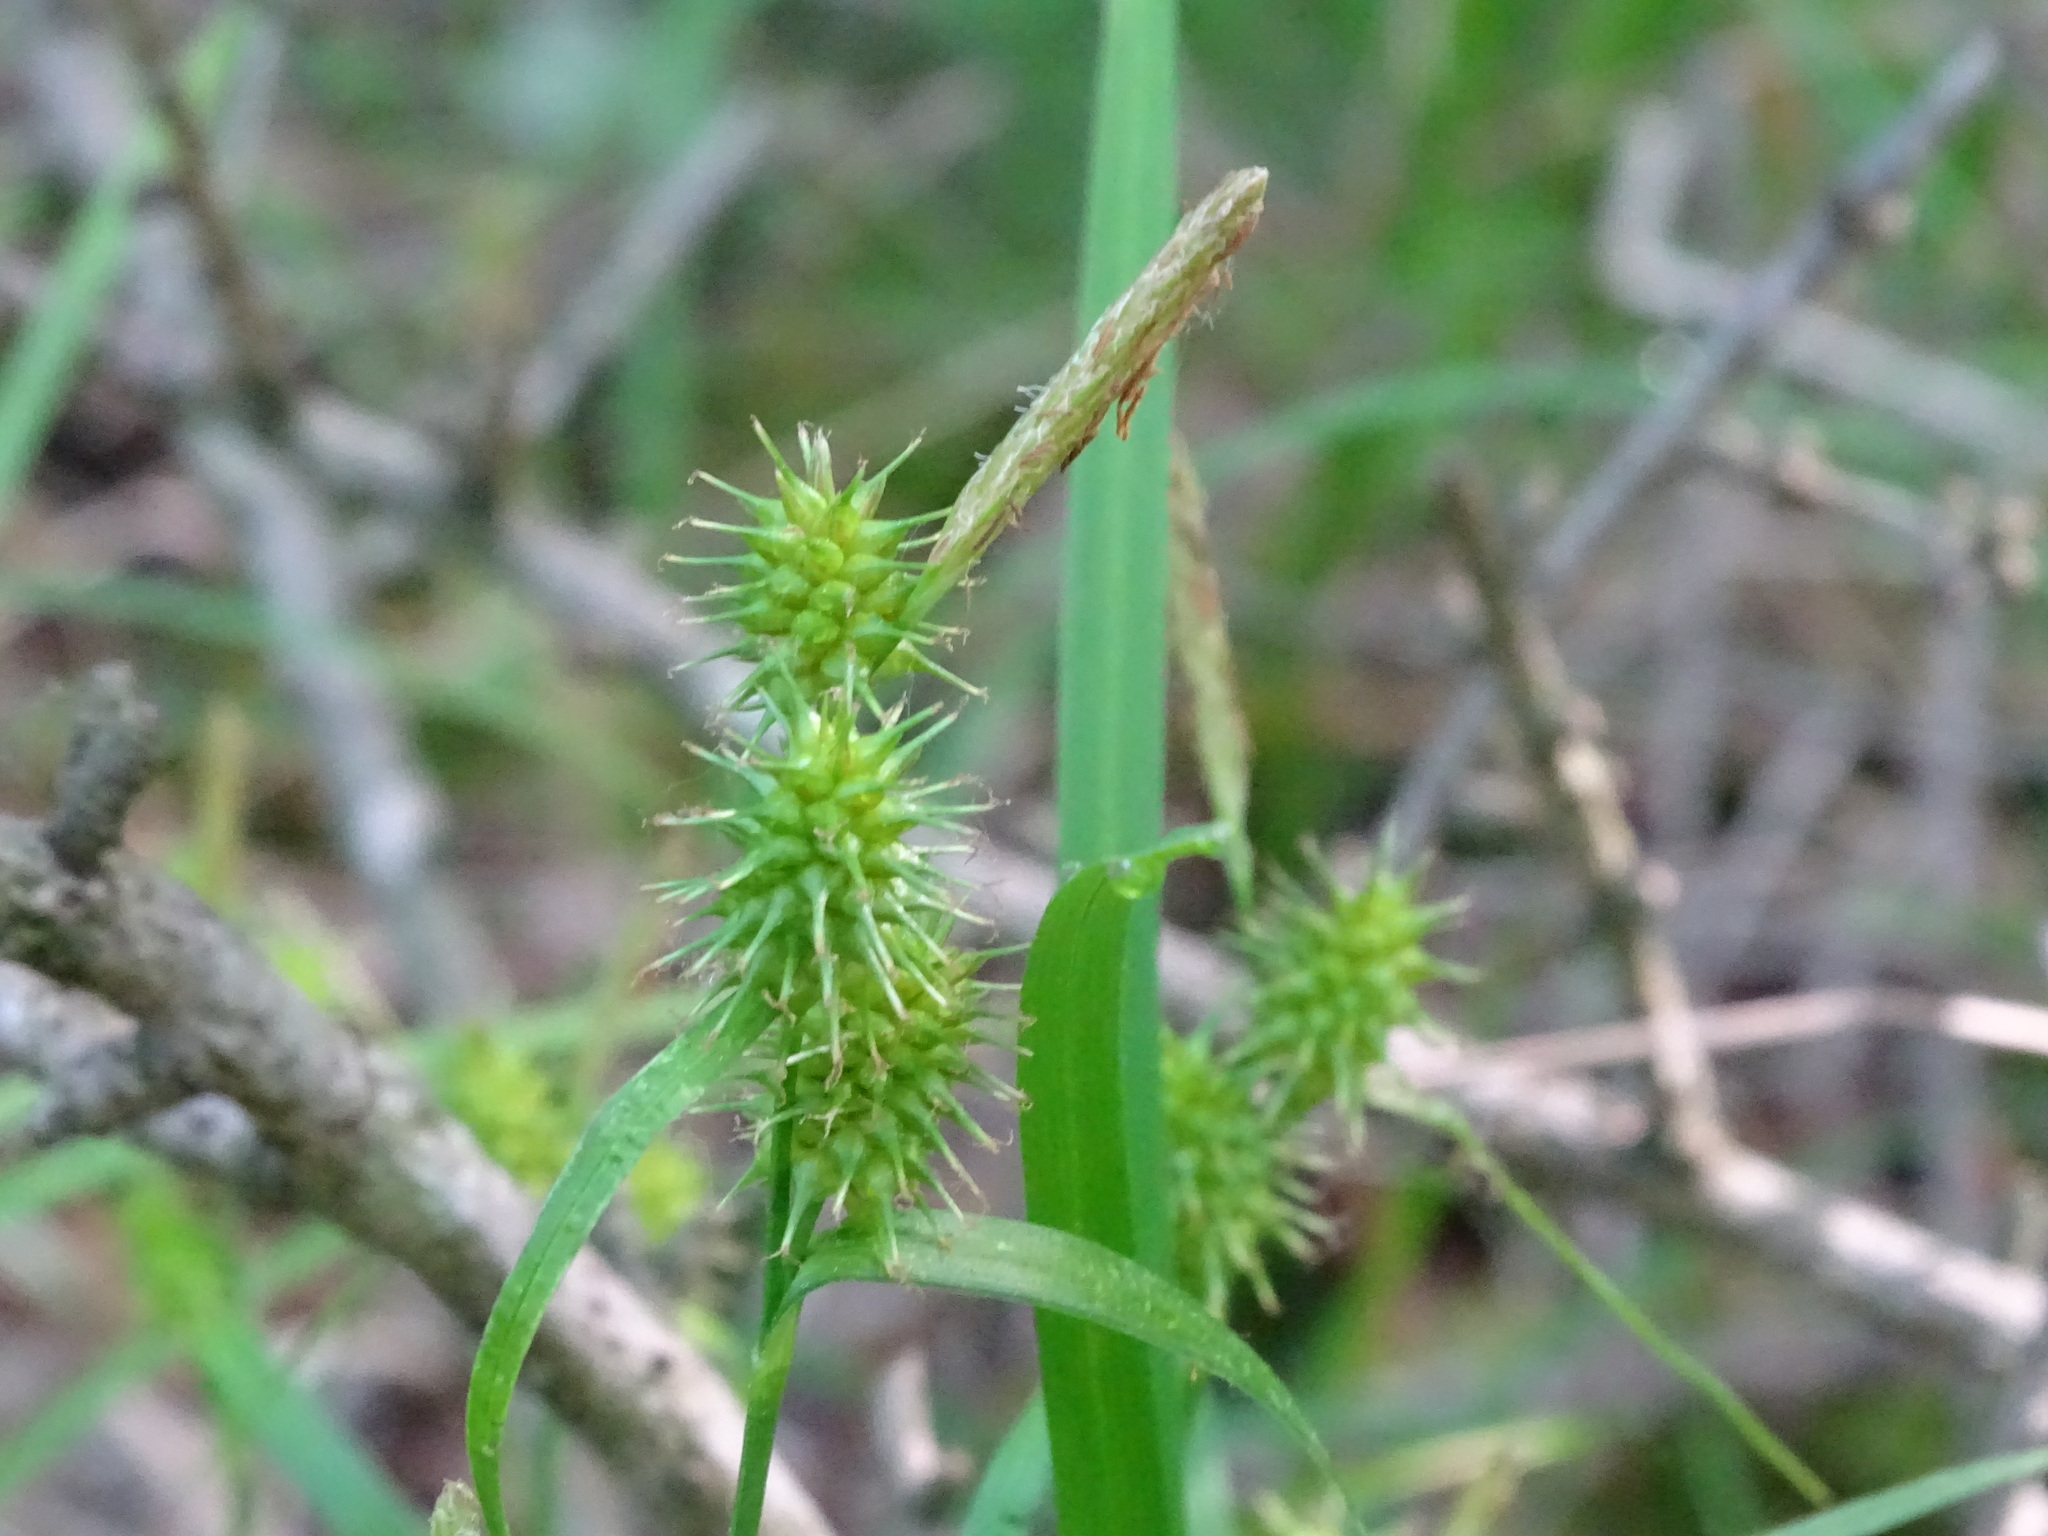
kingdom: Plantae
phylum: Tracheophyta
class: Liliopsida
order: Poales
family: Cyperaceae
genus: Carex
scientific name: Carex flava
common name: Large yellow-sedge
